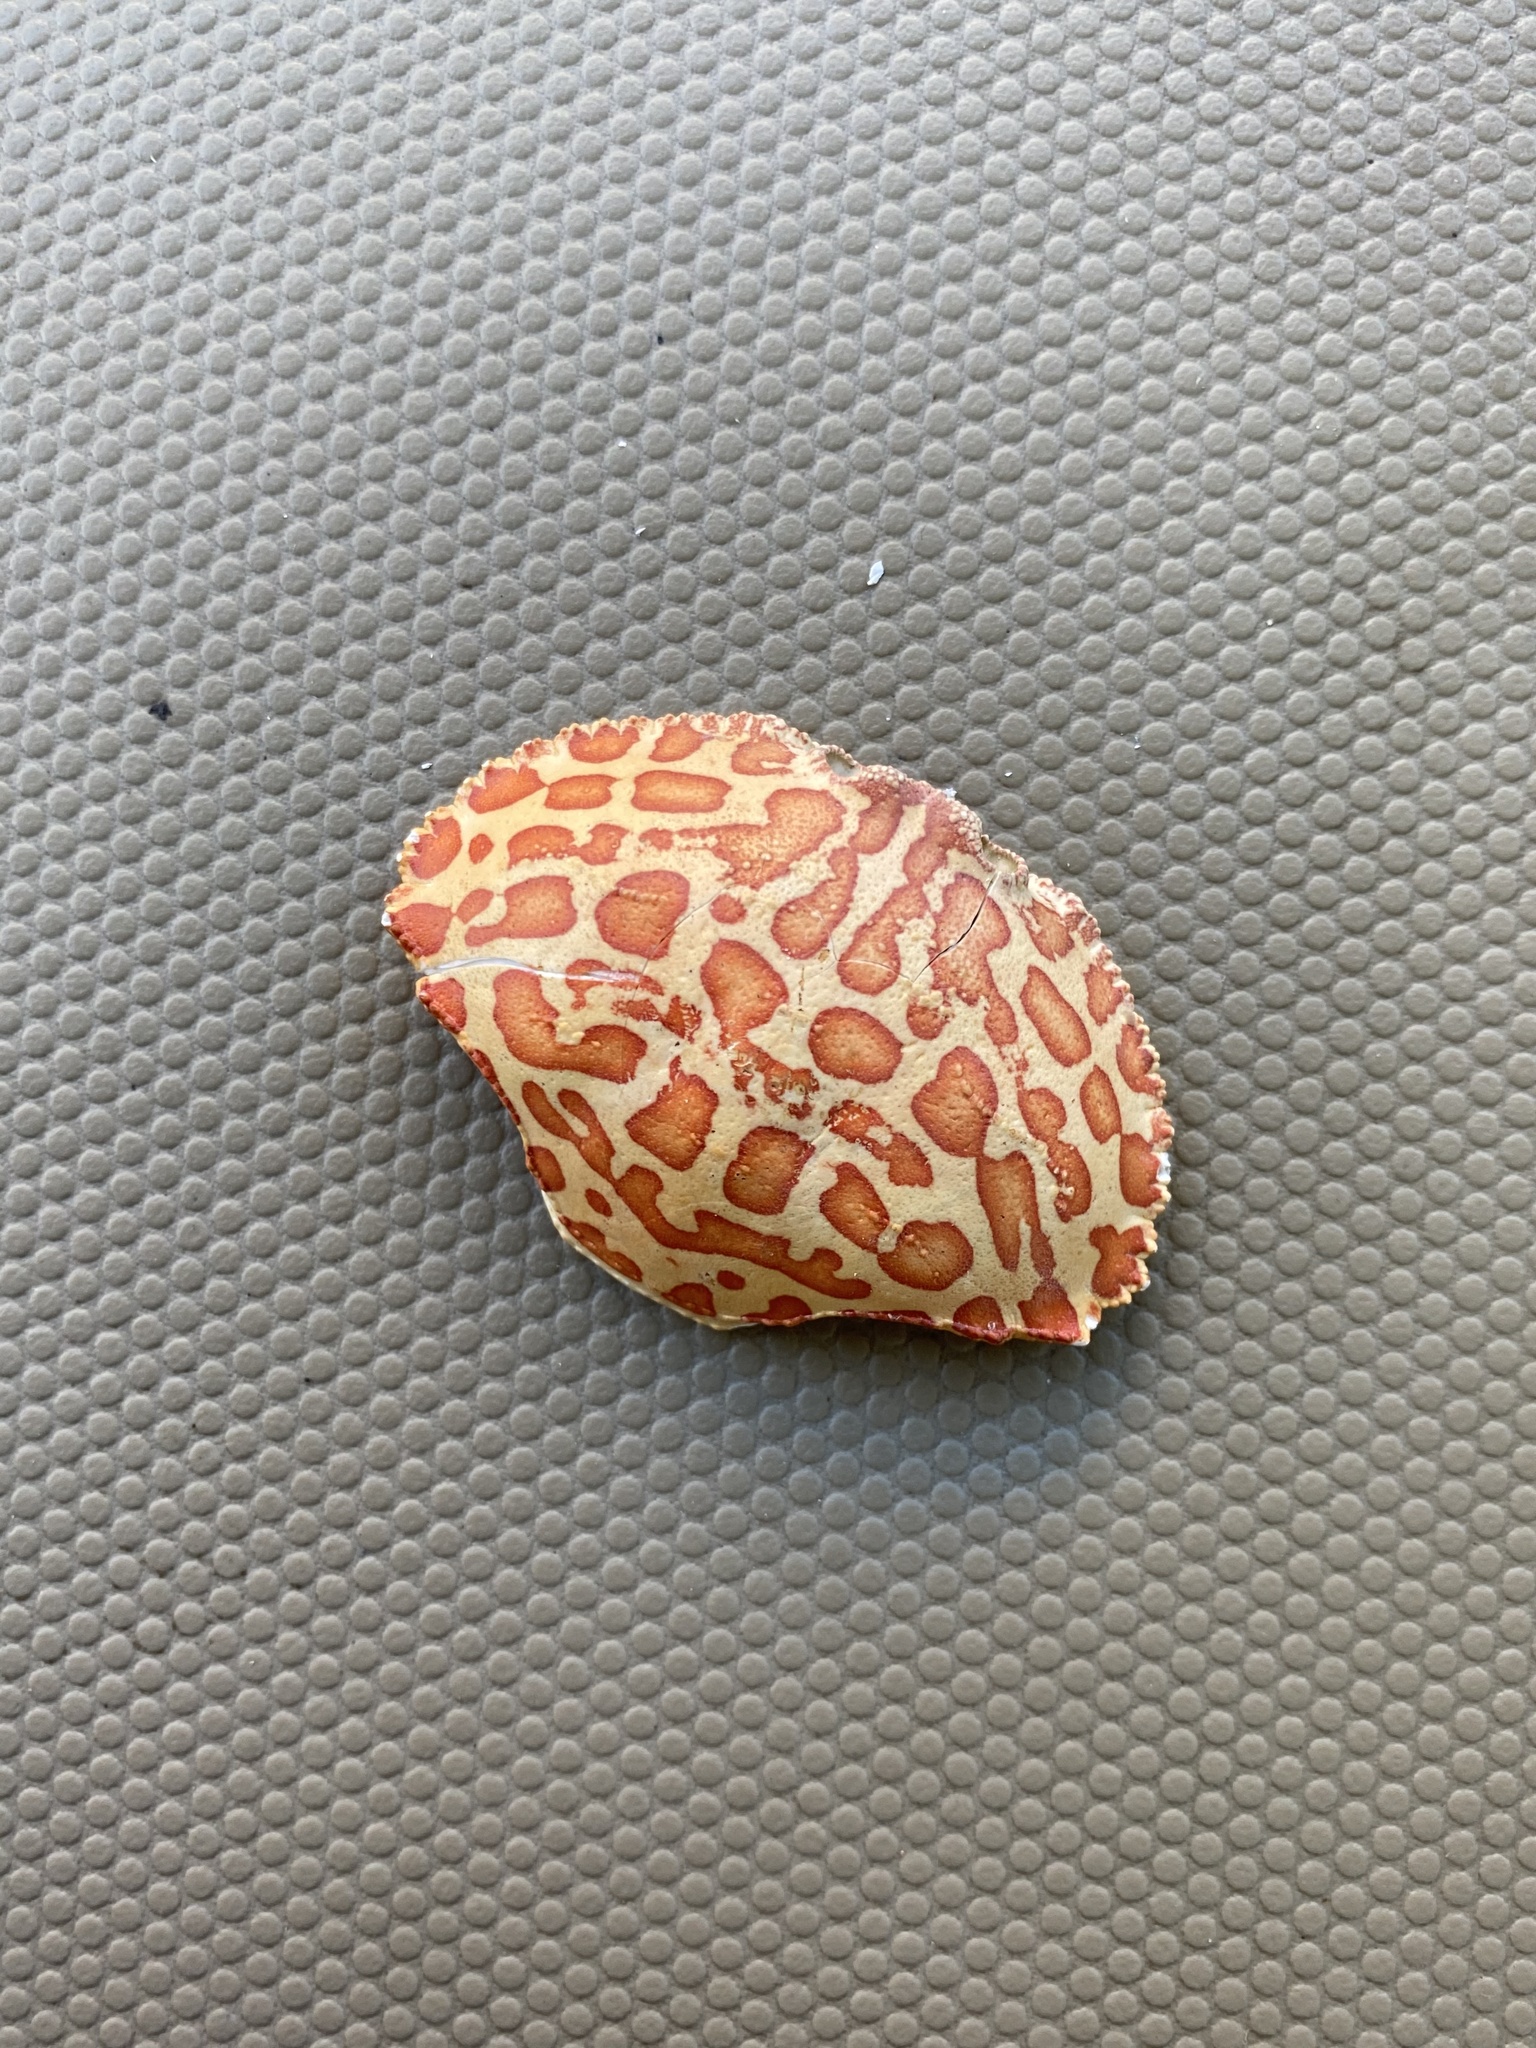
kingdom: Animalia
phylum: Arthropoda
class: Malacostraca
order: Decapoda
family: Aethridae
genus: Hepatus
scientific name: Hepatus epheliticus
